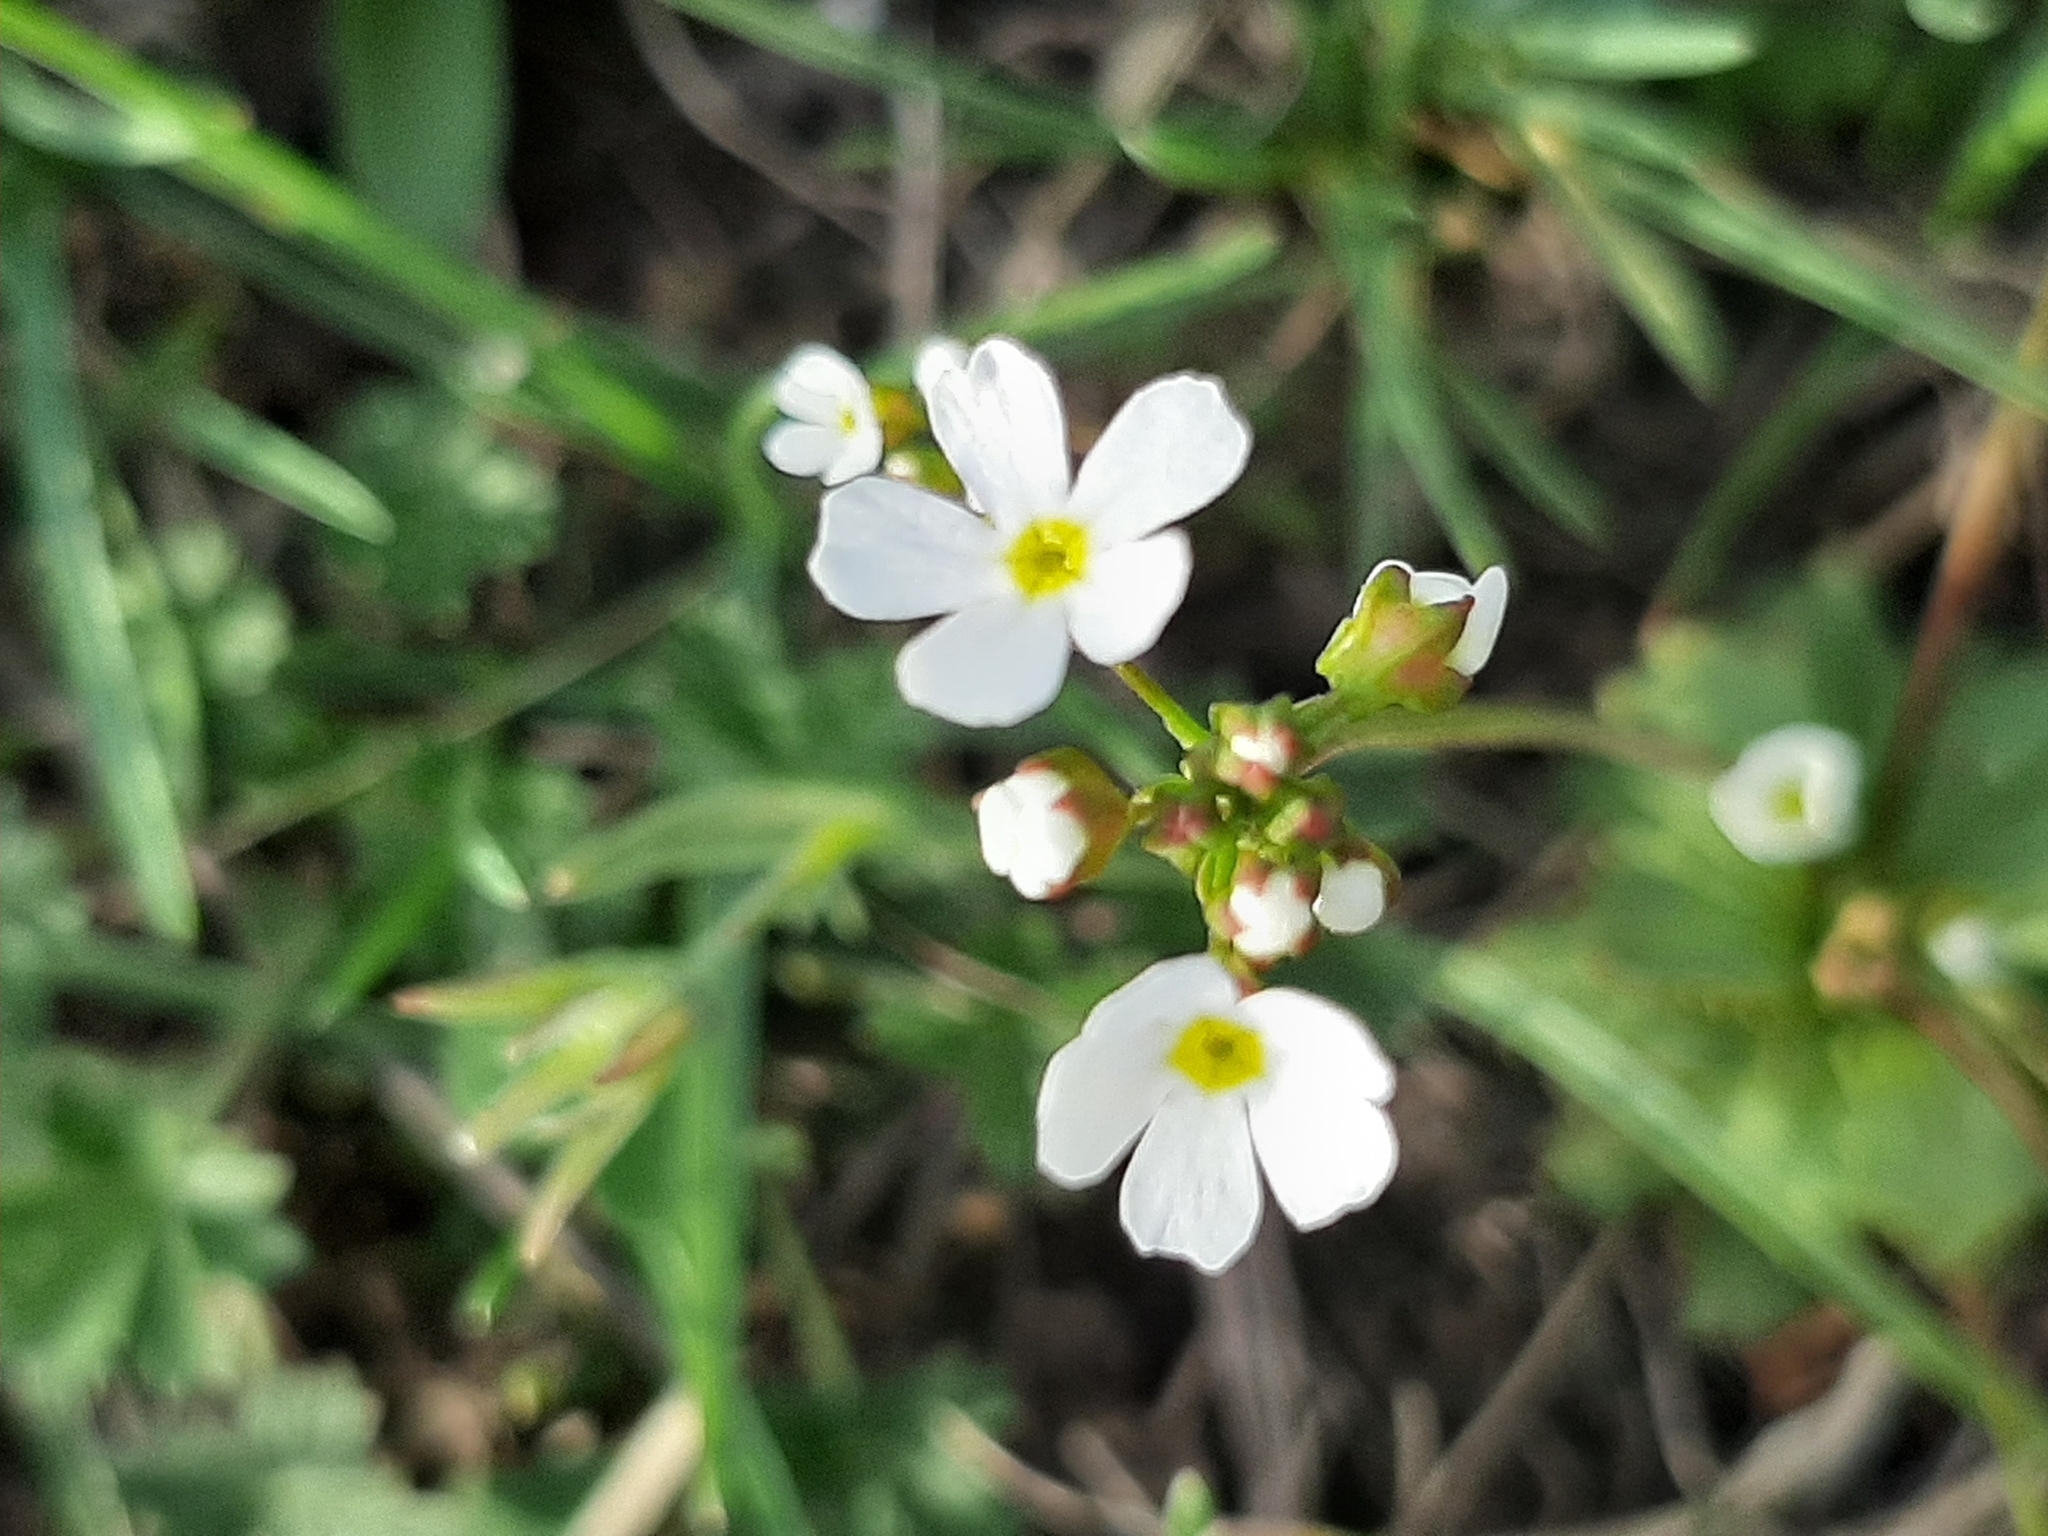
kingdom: Plantae
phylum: Tracheophyta
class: Magnoliopsida
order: Ericales
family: Primulaceae
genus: Androsace
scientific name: Androsace septentrionalis
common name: Hairy northern fairy-candelabra
